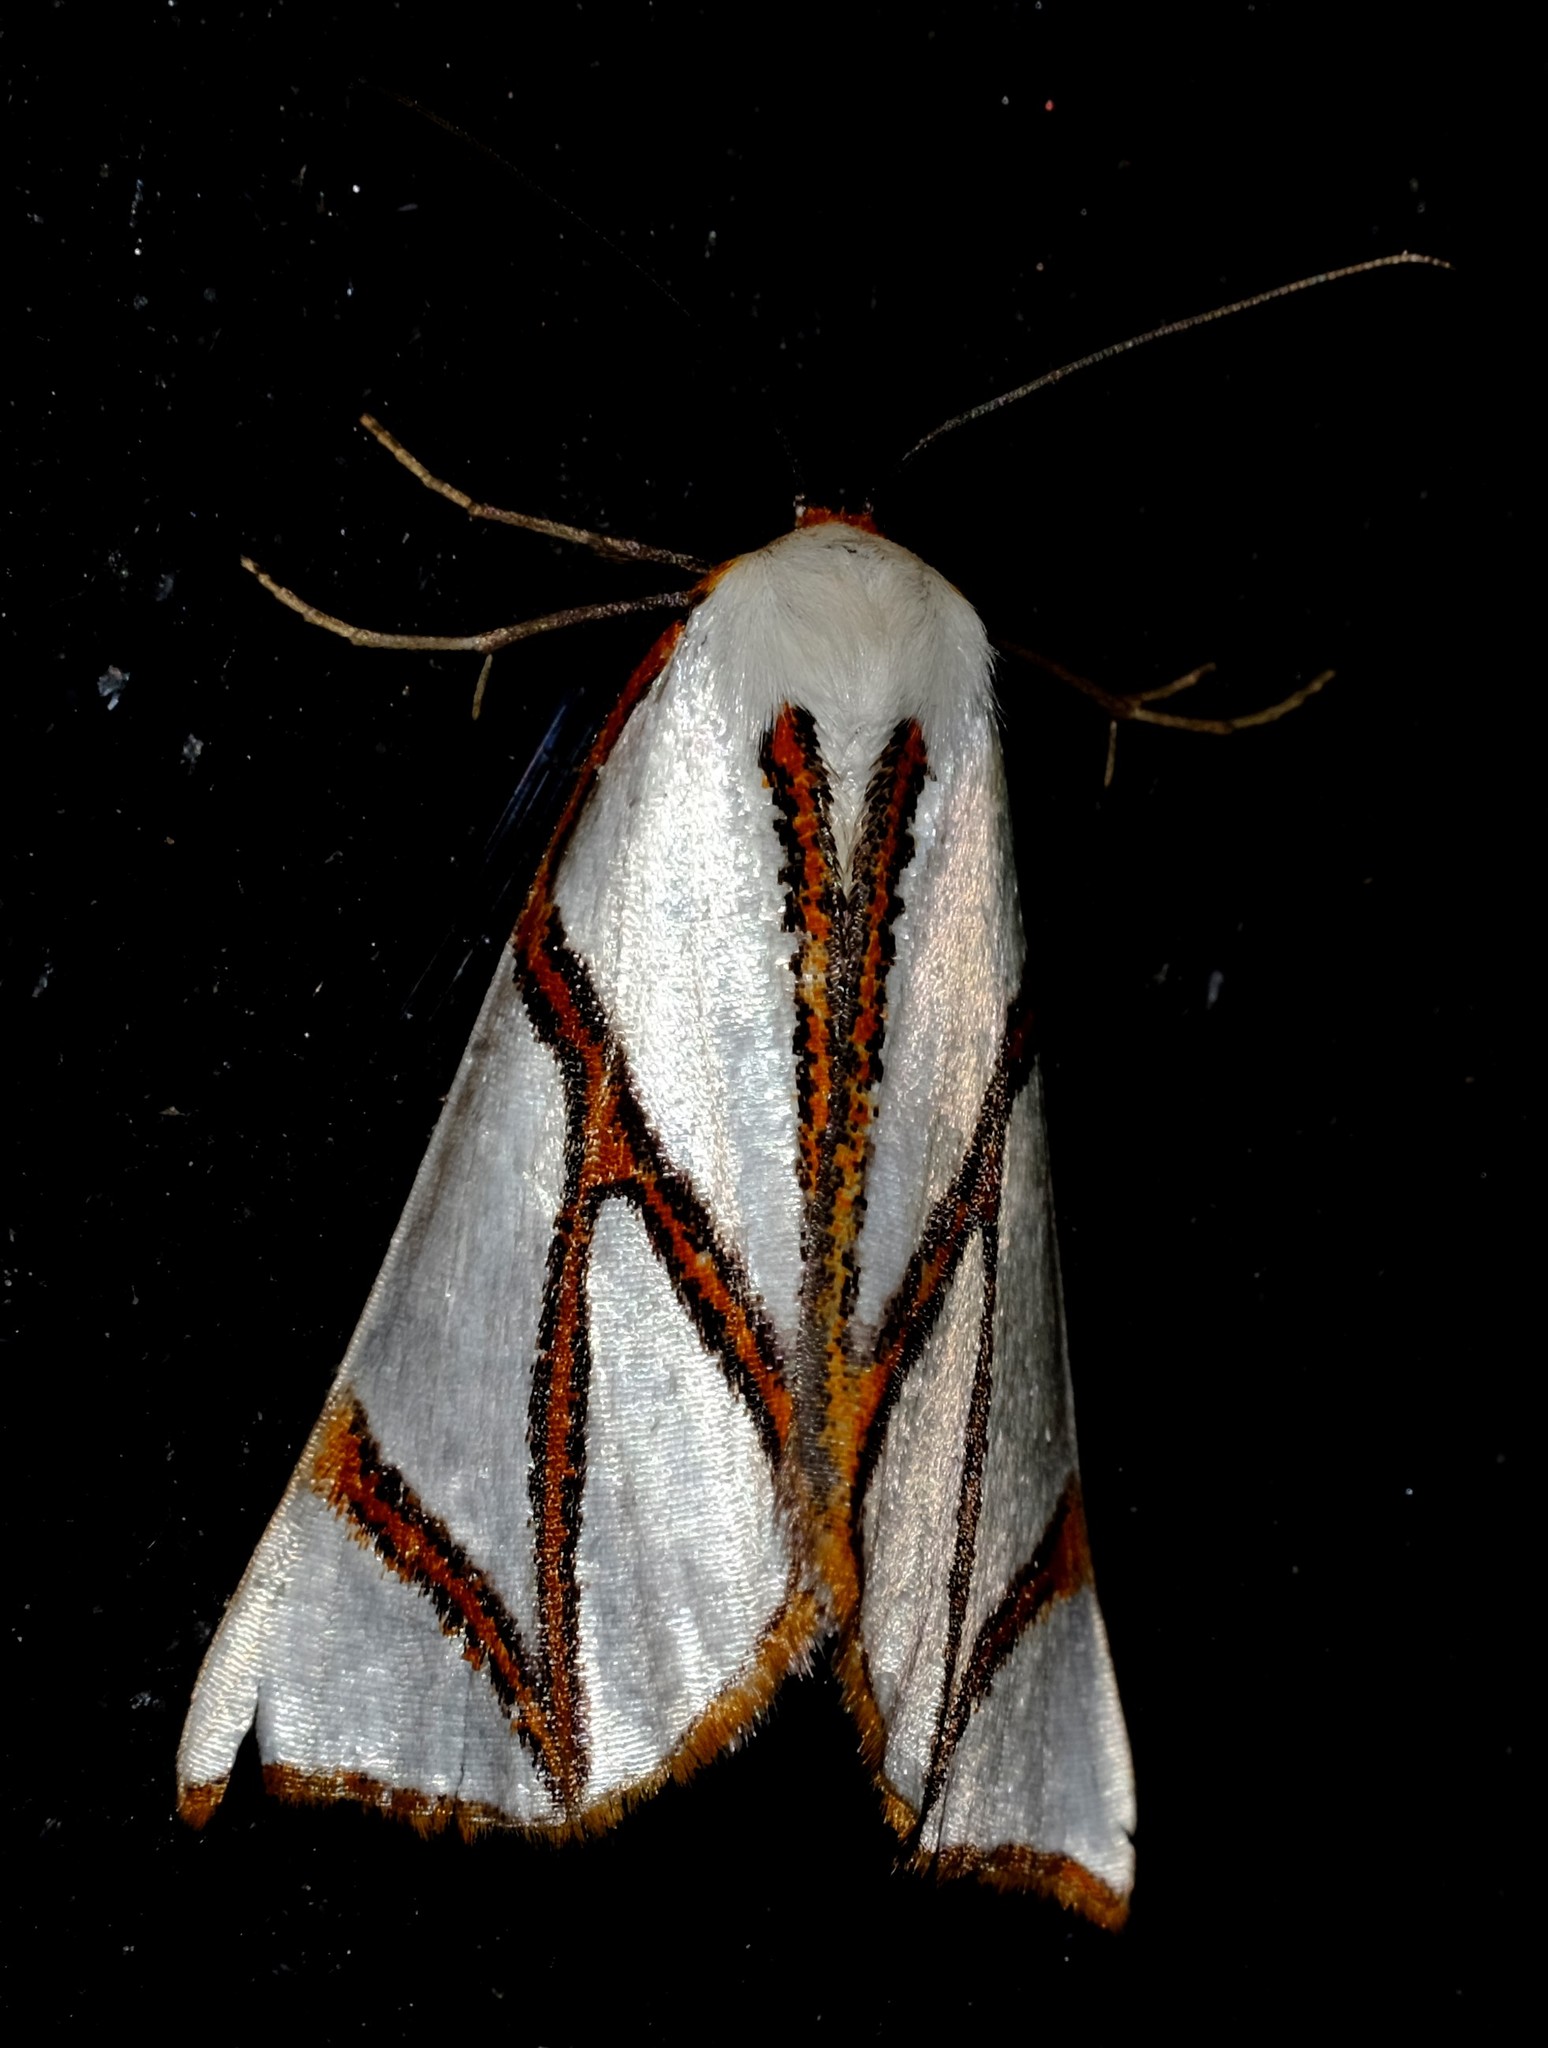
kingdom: Animalia
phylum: Arthropoda
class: Insecta
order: Lepidoptera
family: Geometridae
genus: Thalaina
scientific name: Thalaina clara
